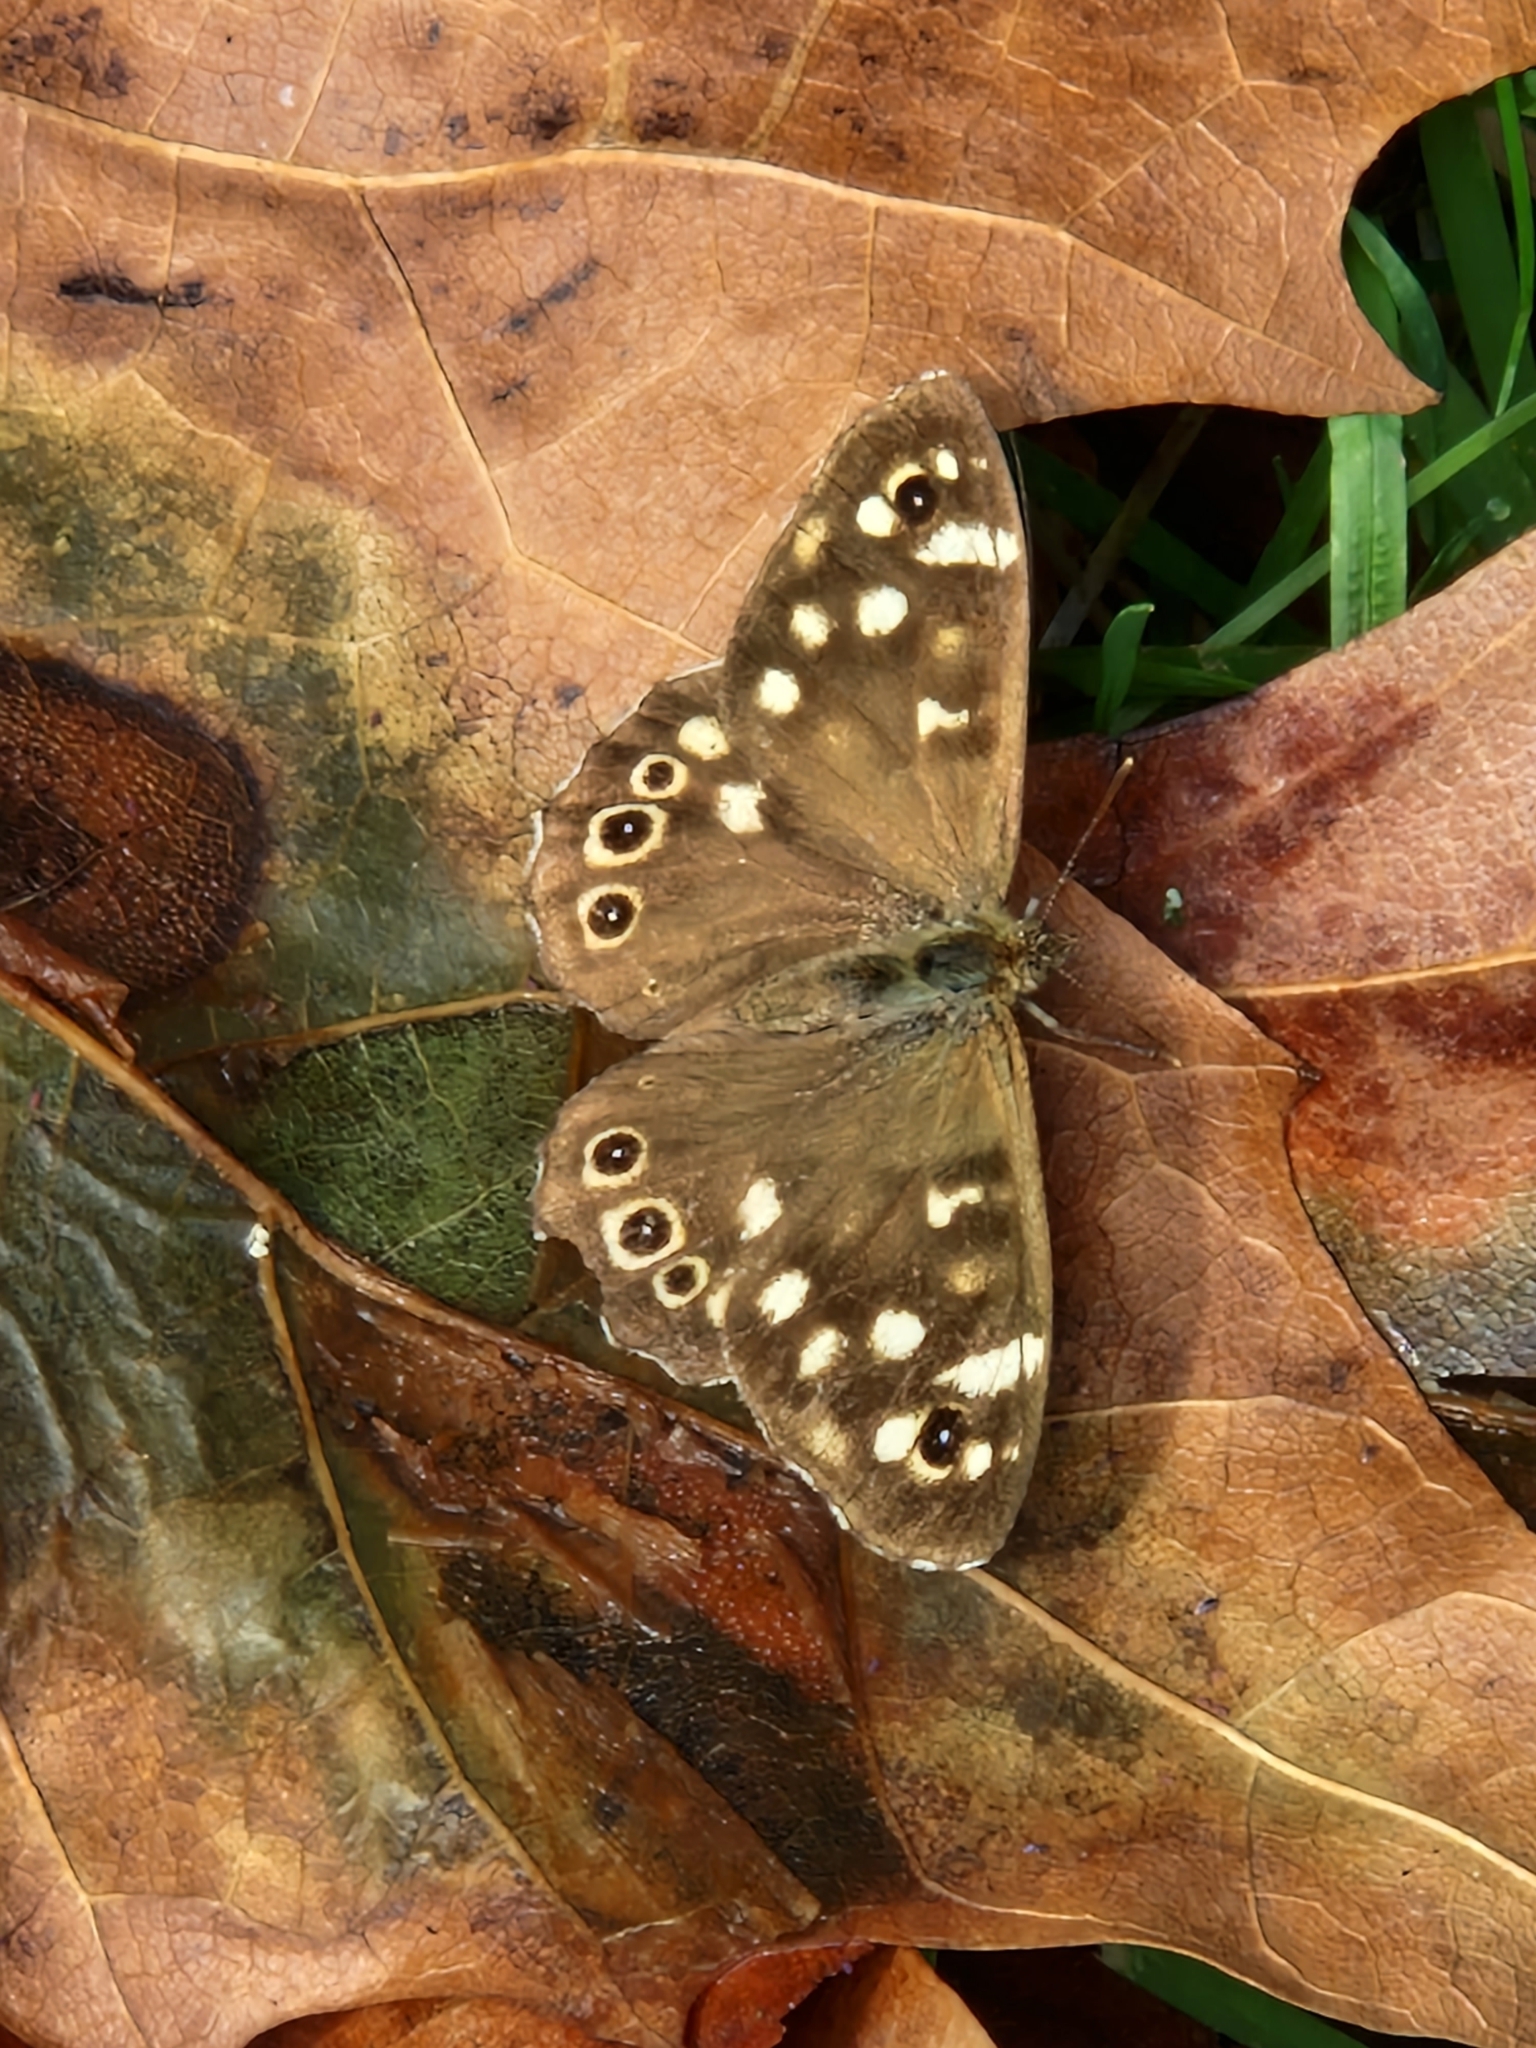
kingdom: Animalia
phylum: Arthropoda
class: Insecta
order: Lepidoptera
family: Nymphalidae
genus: Pararge
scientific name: Pararge aegeria
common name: Speckled wood
